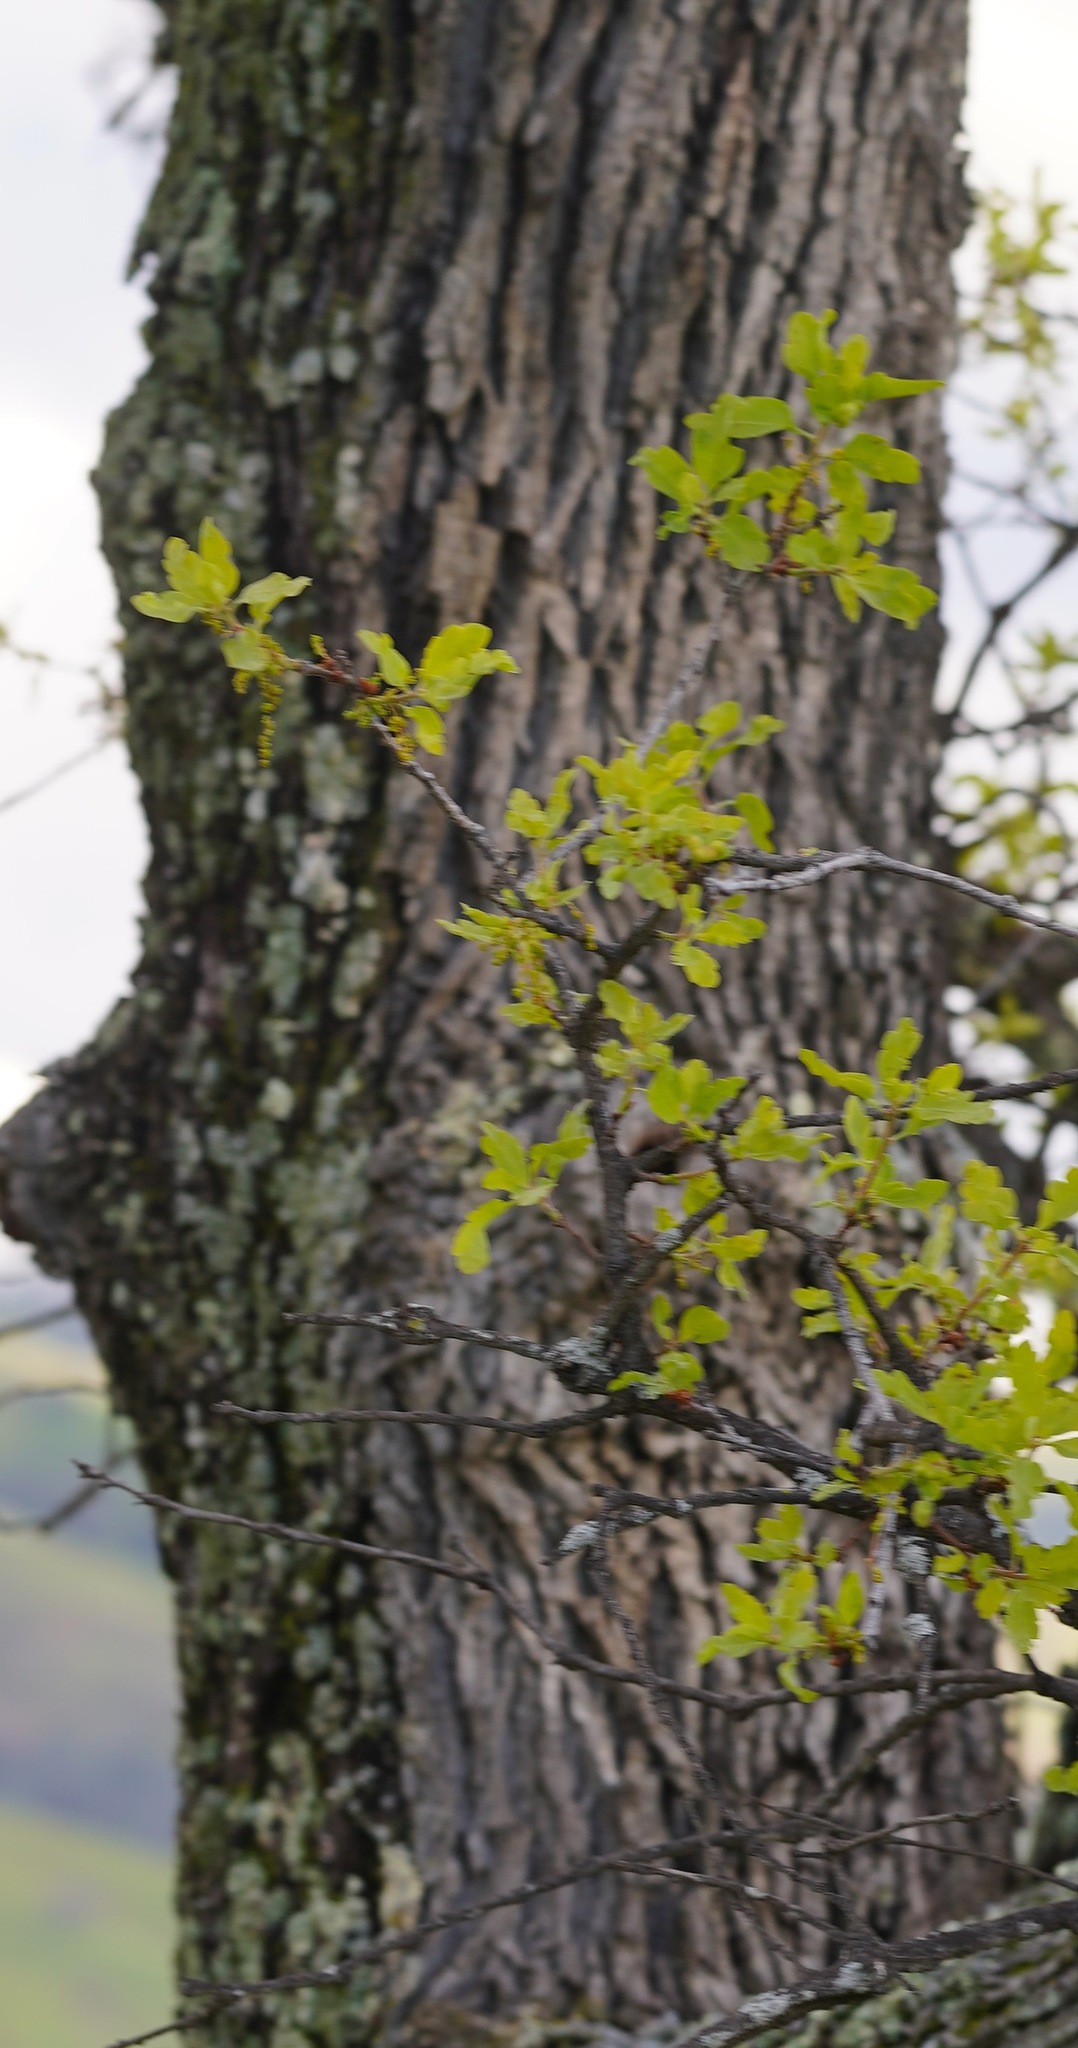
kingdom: Plantae
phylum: Tracheophyta
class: Magnoliopsida
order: Fagales
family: Fagaceae
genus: Quercus
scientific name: Quercus douglasii
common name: Blue oak
